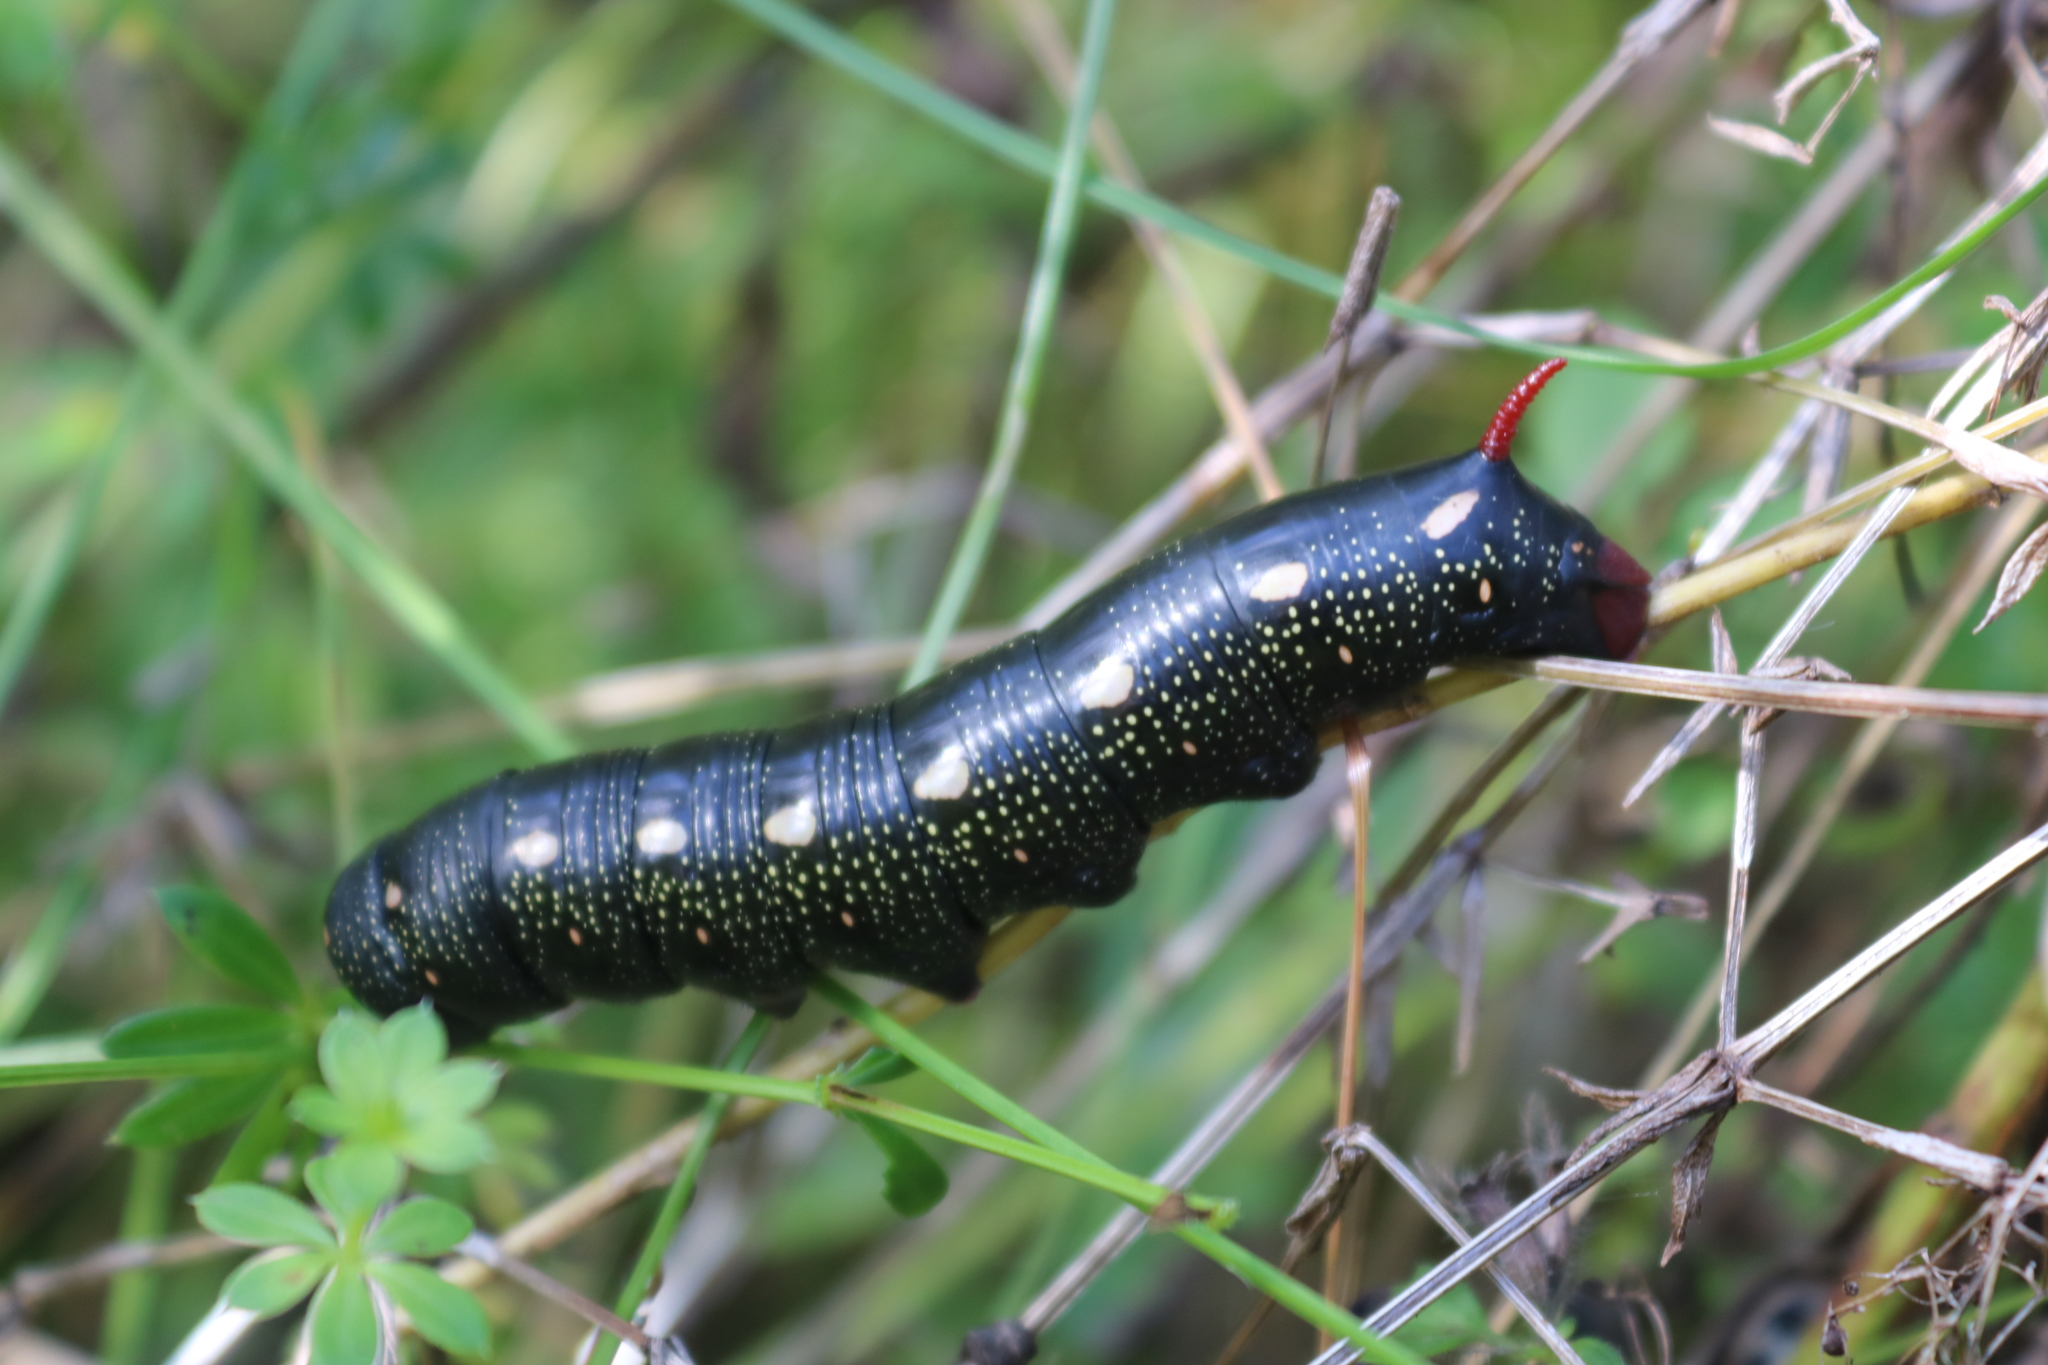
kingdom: Animalia
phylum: Arthropoda
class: Insecta
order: Lepidoptera
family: Sphingidae
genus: Hyles
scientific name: Hyles gallii
